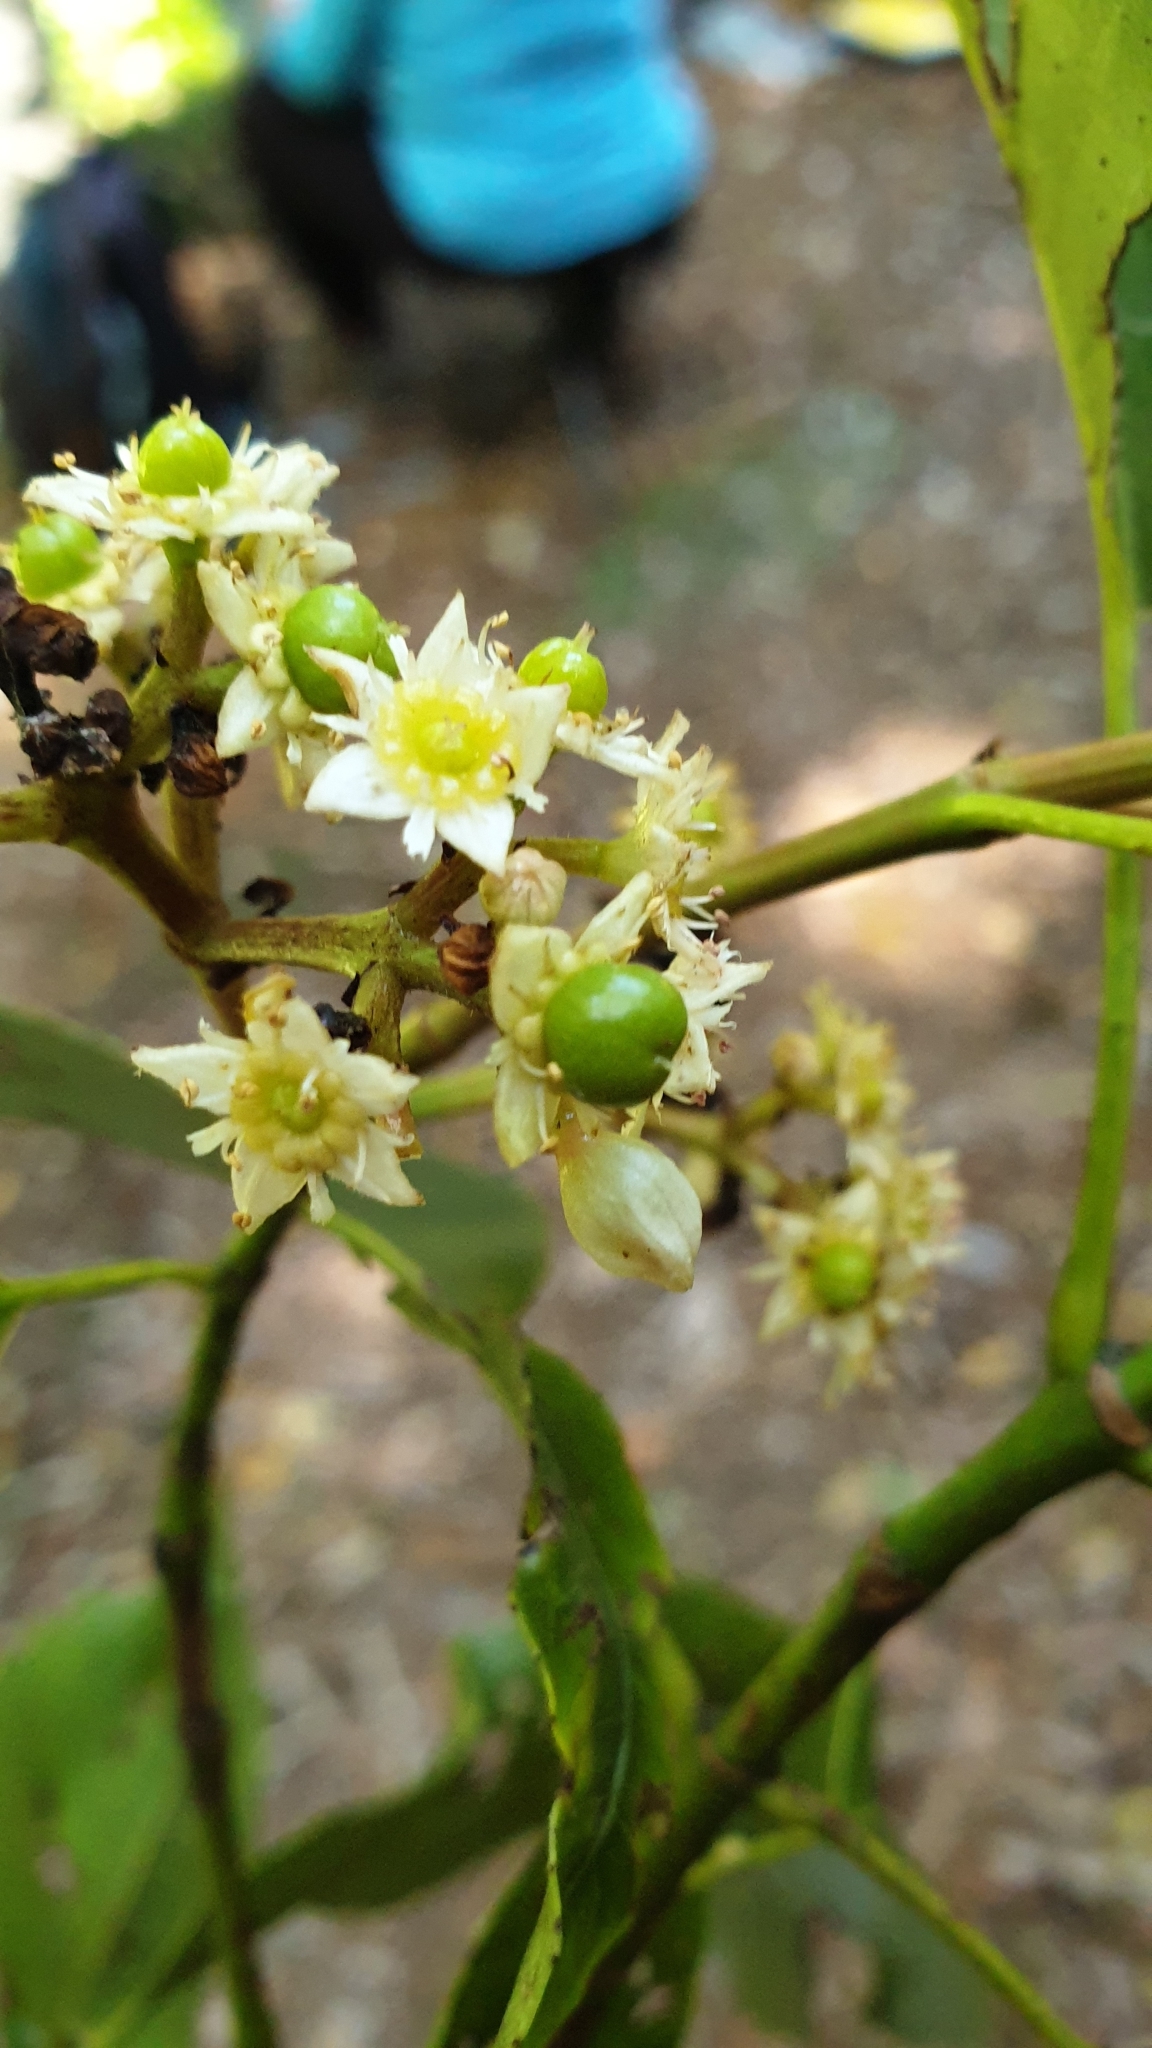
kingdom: Plantae
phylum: Tracheophyta
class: Magnoliopsida
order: Oxalidales
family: Cunoniaceae
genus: Schizomeria
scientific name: Schizomeria ovata
